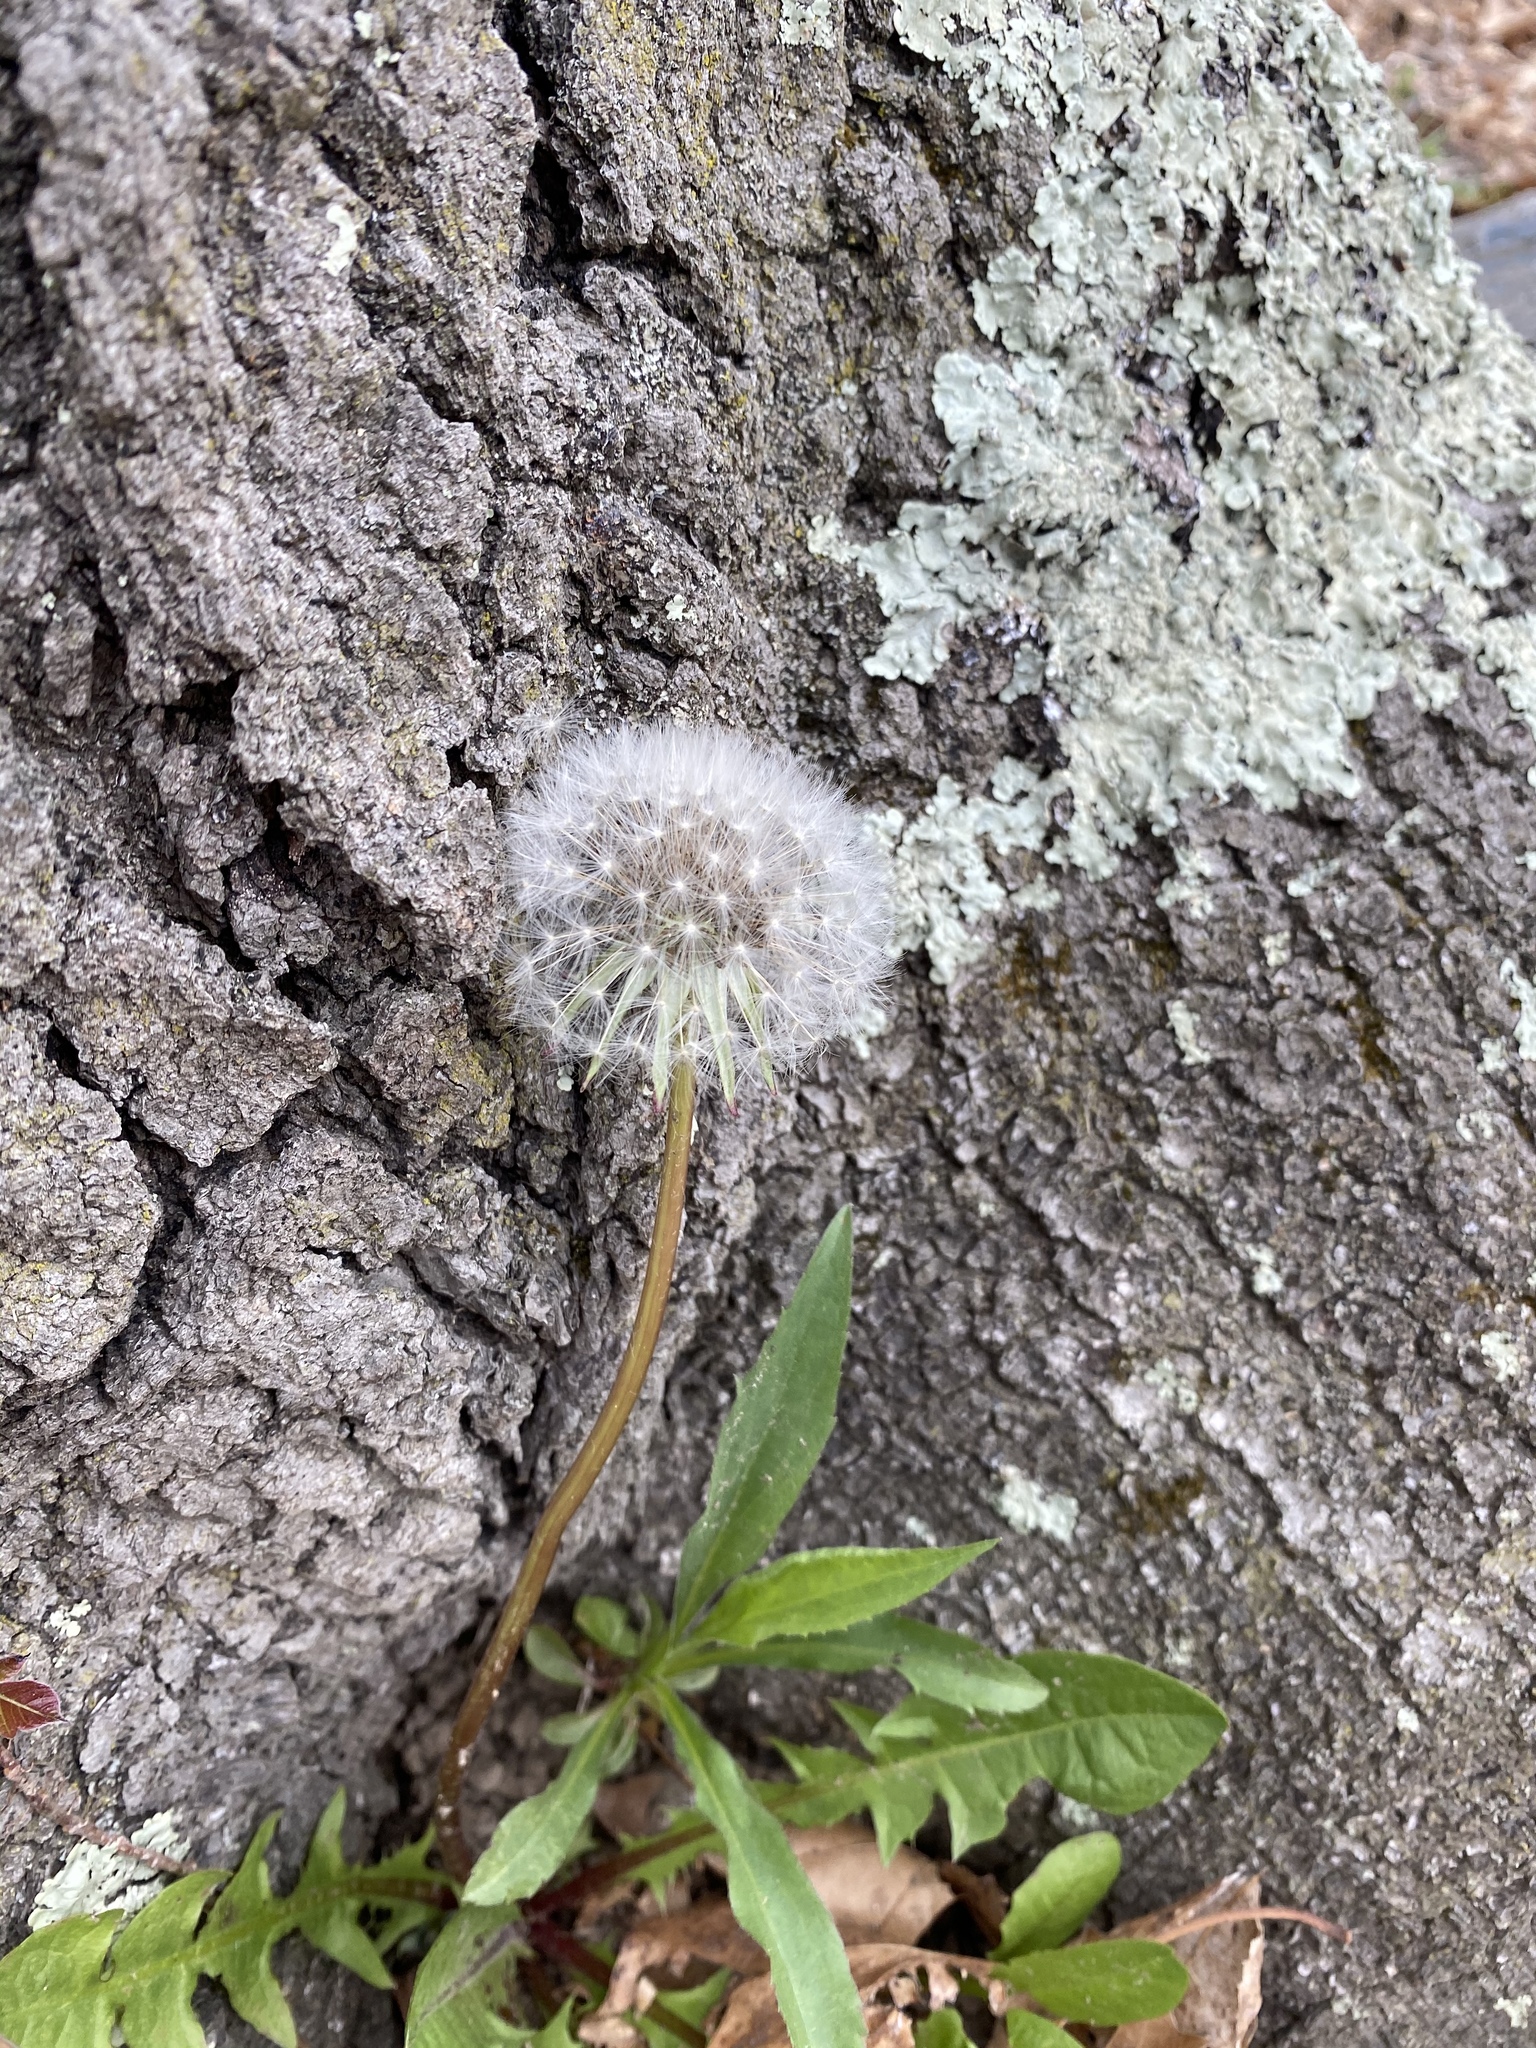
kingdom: Plantae
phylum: Tracheophyta
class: Magnoliopsida
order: Asterales
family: Asteraceae
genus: Taraxacum
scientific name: Taraxacum officinale
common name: Common dandelion
